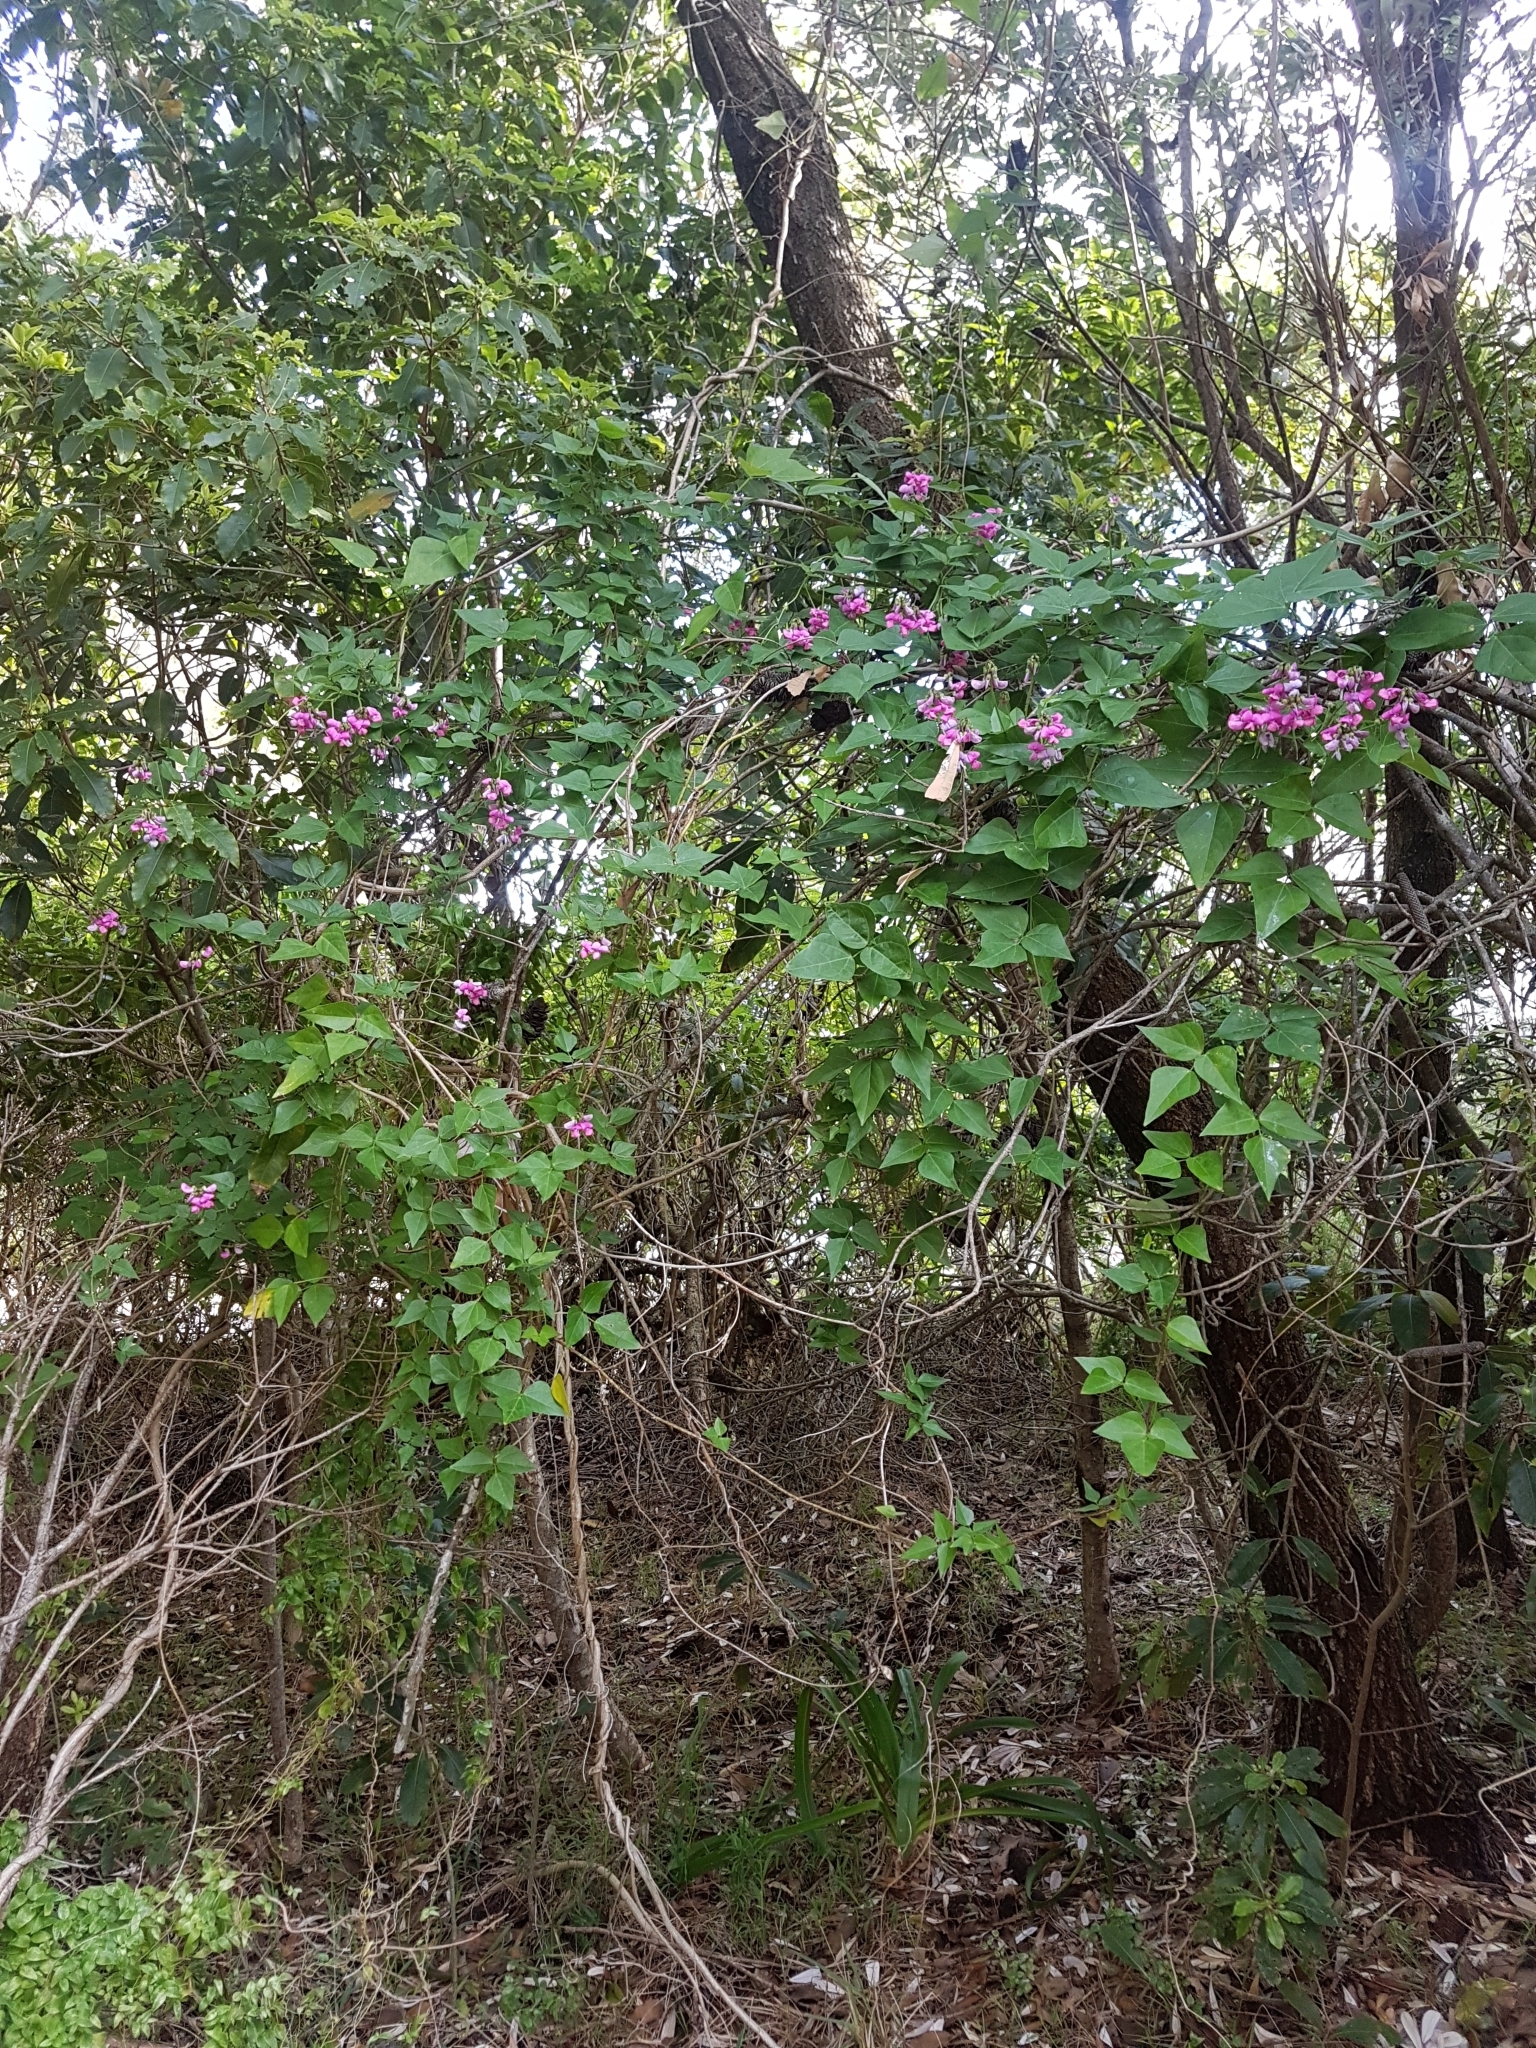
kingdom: Plantae
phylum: Tracheophyta
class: Magnoliopsida
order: Fabales
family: Fabaceae
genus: Dipogon
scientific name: Dipogon lignosus
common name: Okie bean
